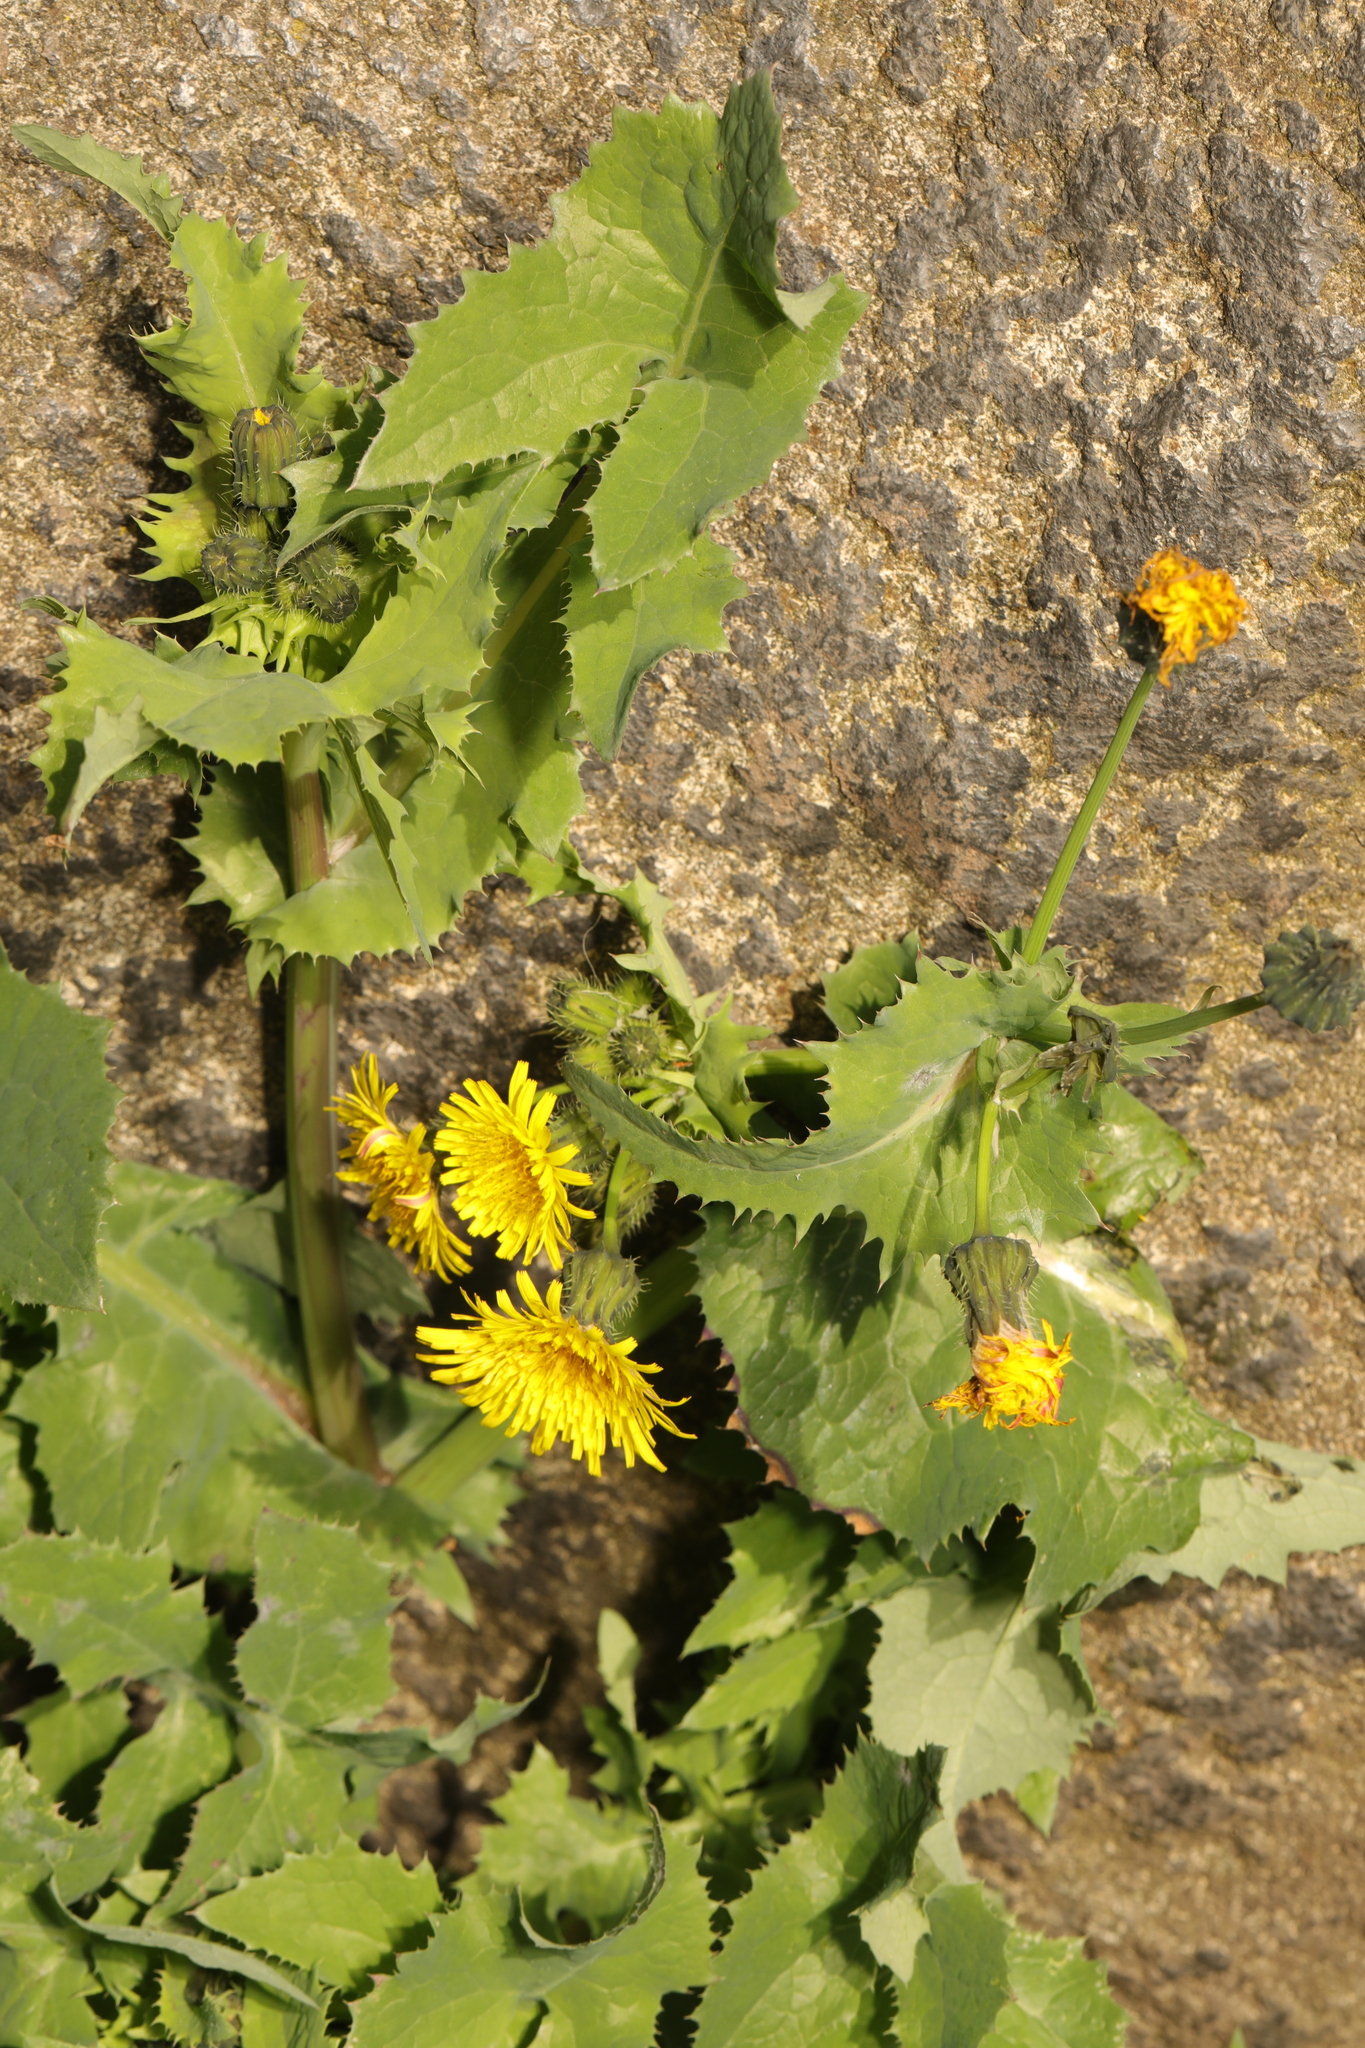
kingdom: Plantae
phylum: Tracheophyta
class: Magnoliopsida
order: Asterales
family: Asteraceae
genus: Sonchus
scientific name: Sonchus oleraceus
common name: Common sowthistle
